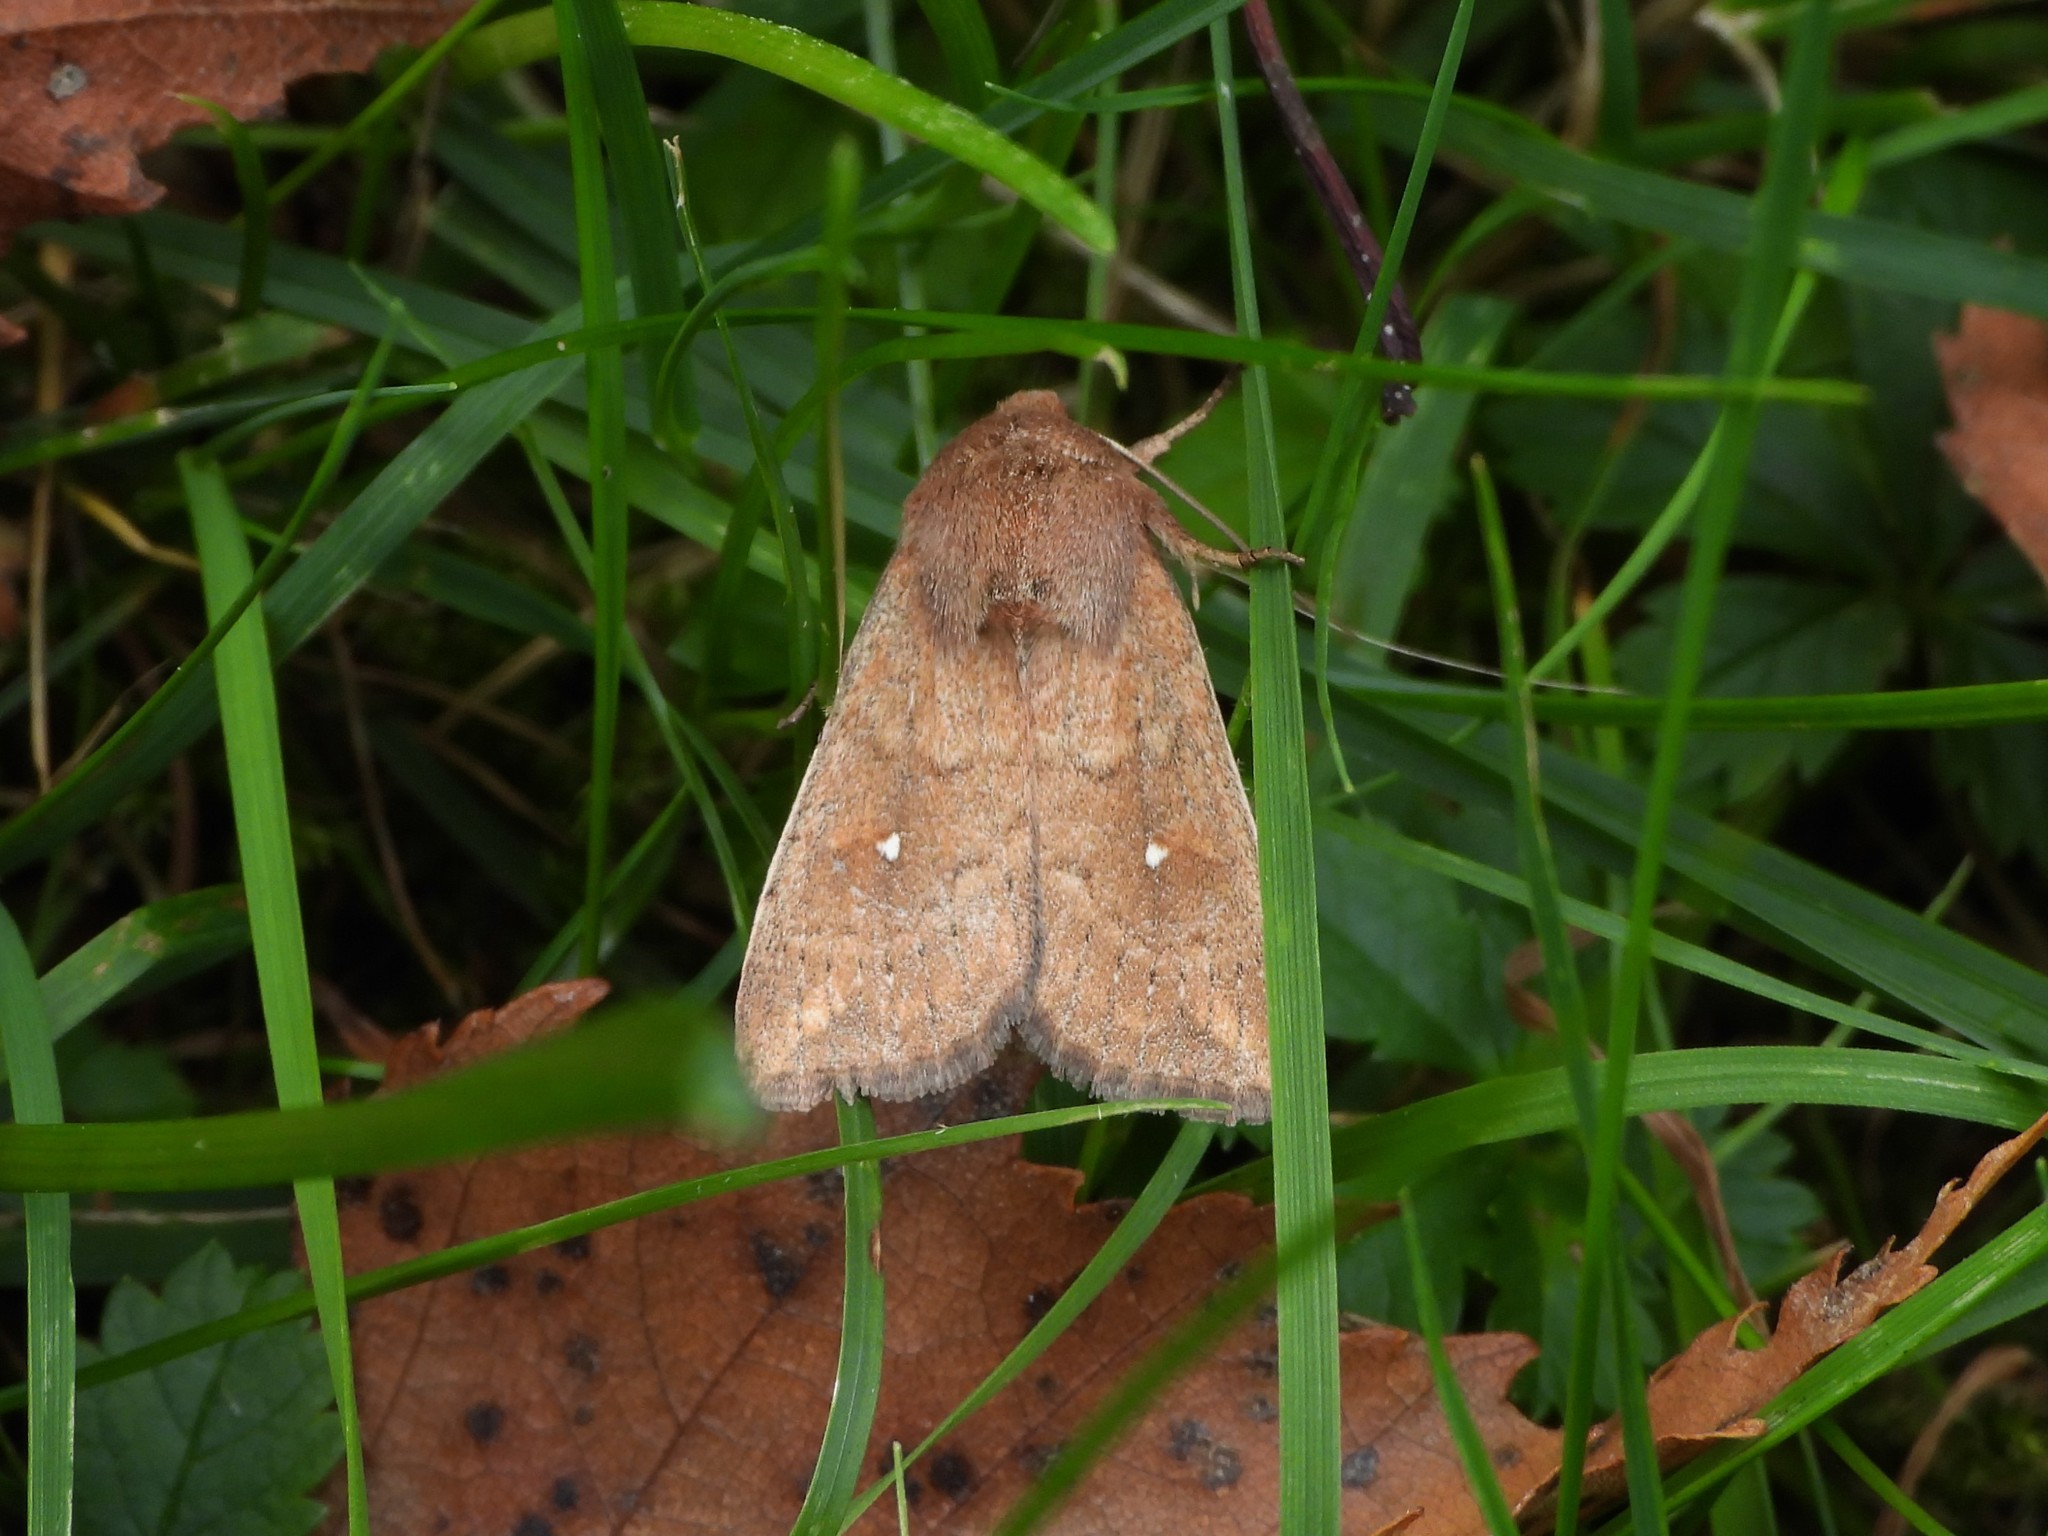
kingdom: Animalia
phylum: Arthropoda
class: Insecta
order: Lepidoptera
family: Noctuidae
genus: Mythimna
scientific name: Mythimna albipuncta
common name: White-point
